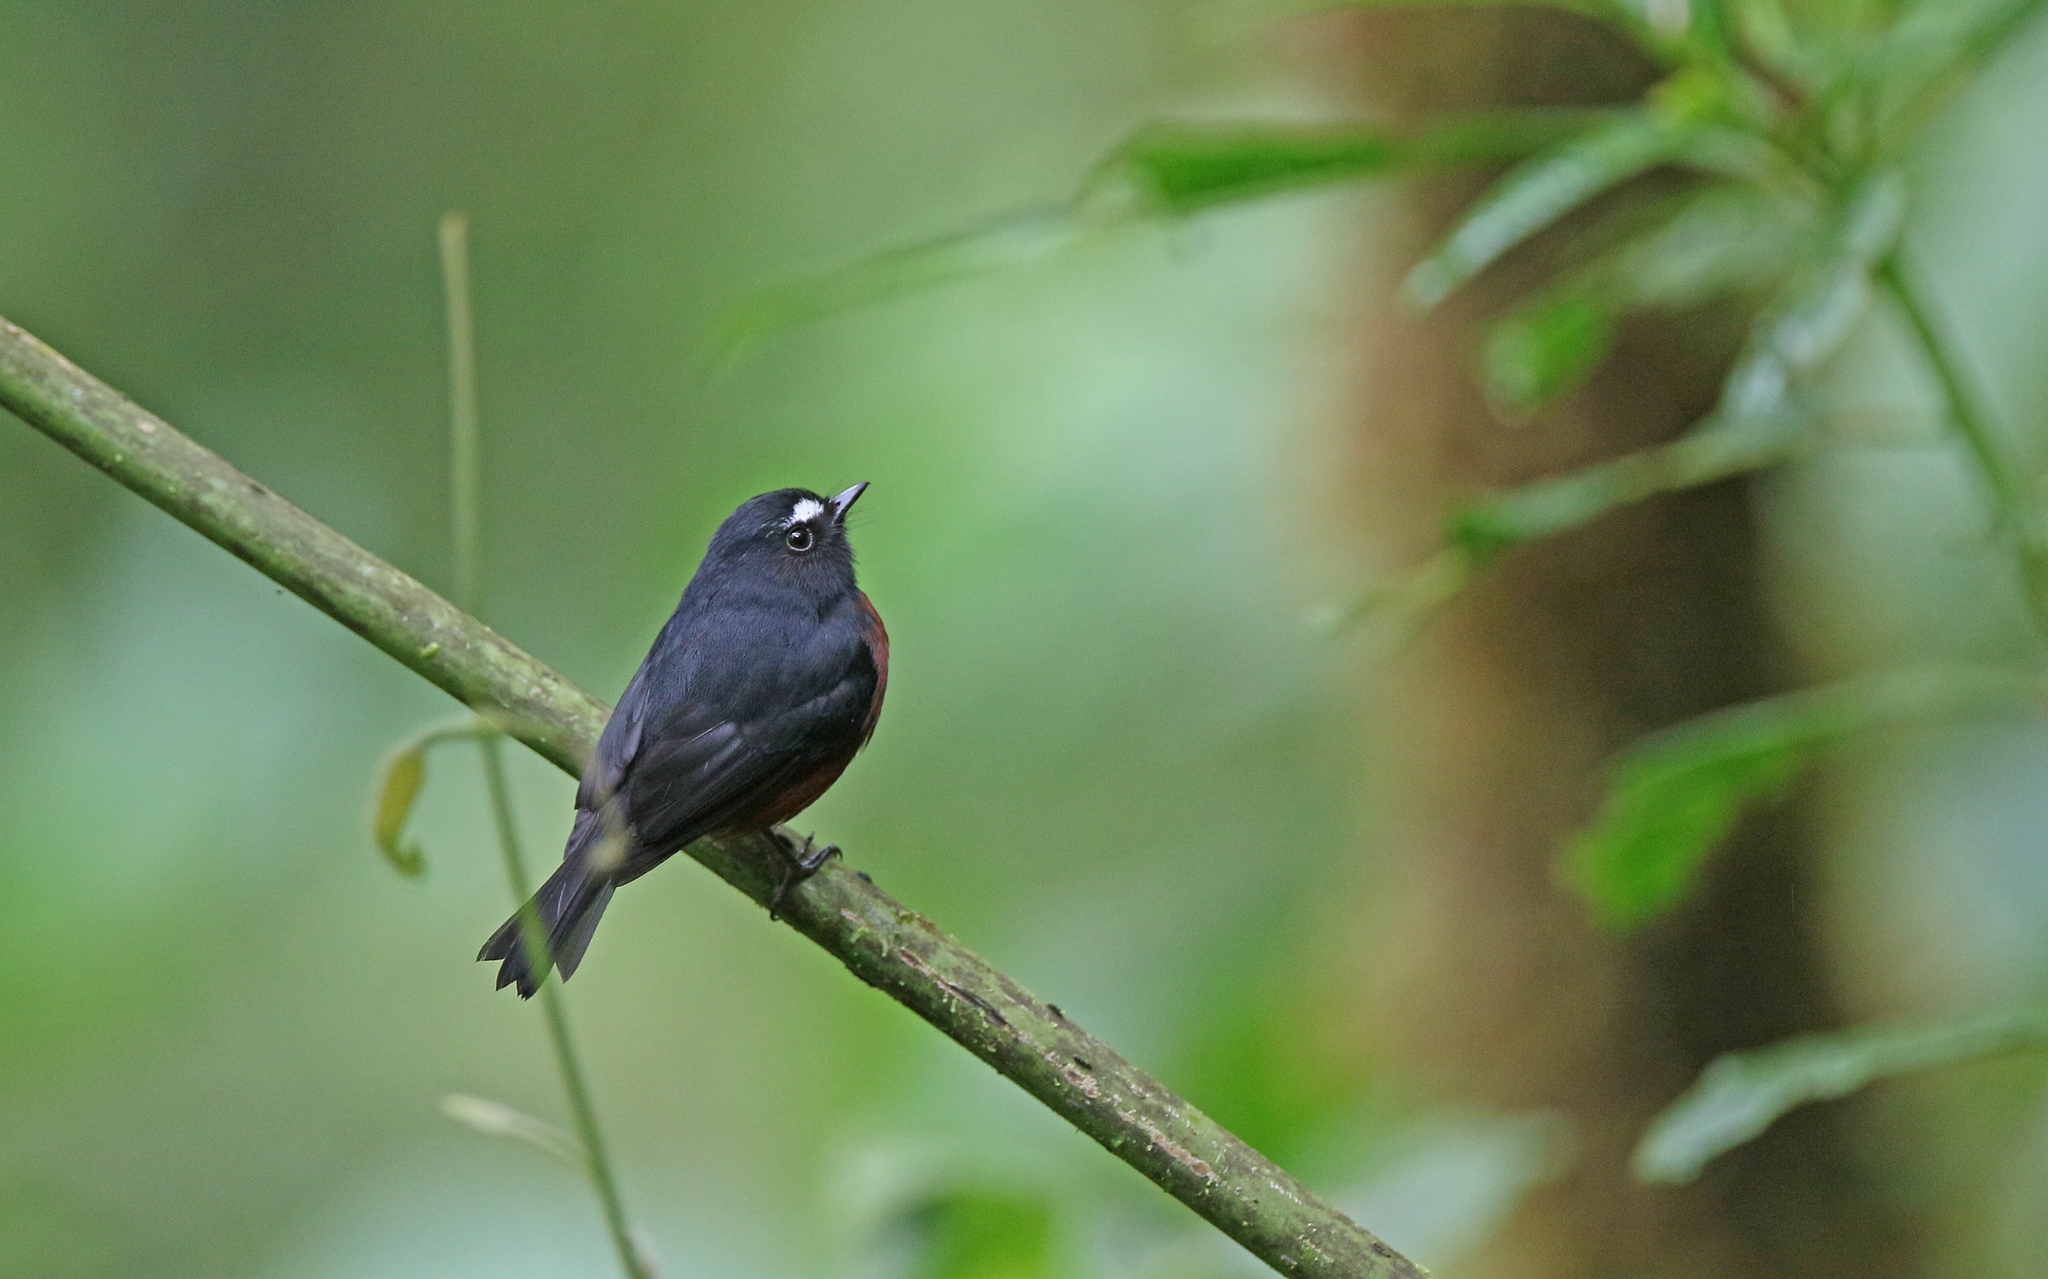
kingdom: Animalia
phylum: Chordata
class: Aves
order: Passeriformes
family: Tyrannidae
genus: Ochthoeca
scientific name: Ochthoeca cinnamomeiventris
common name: Slaty-backed chat-tyrant
